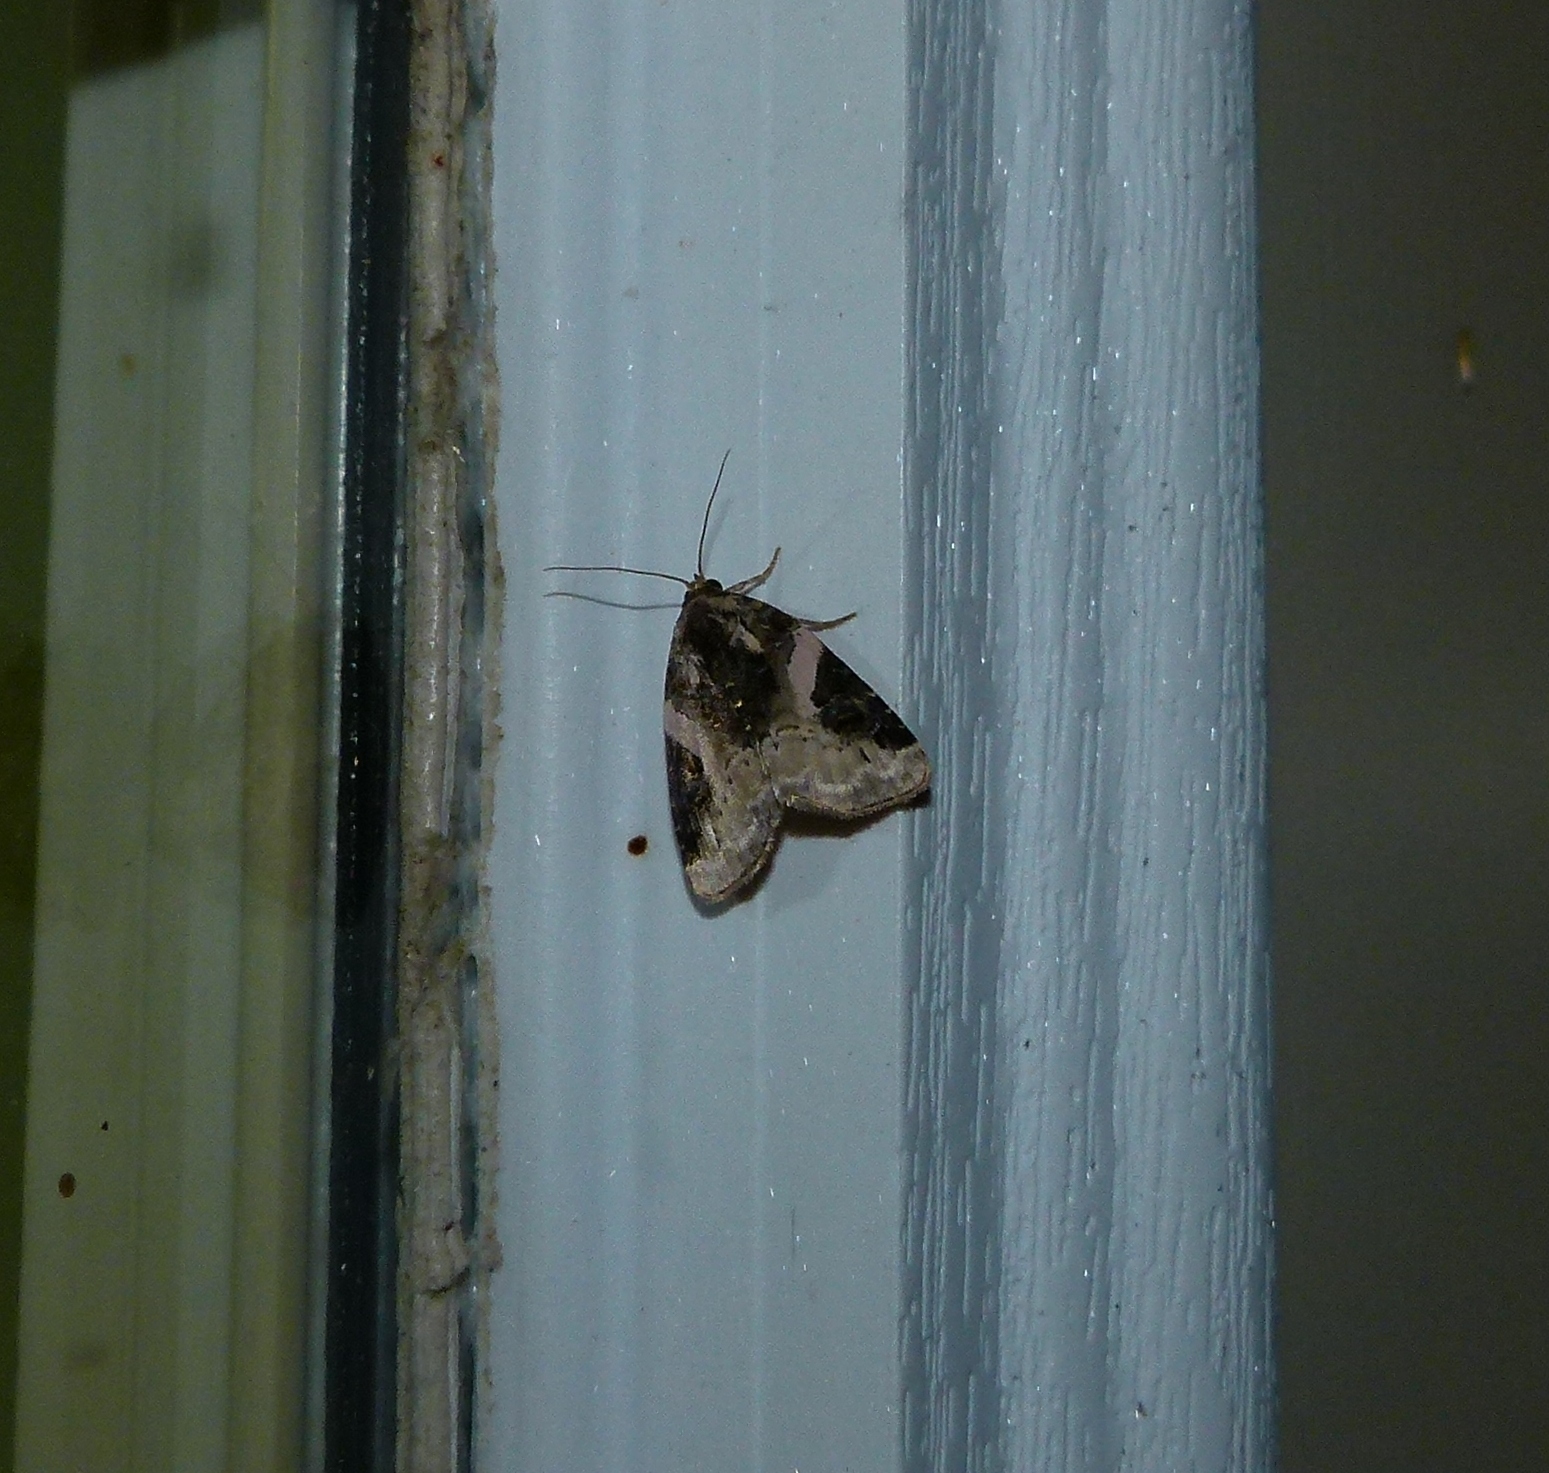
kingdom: Animalia
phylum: Arthropoda
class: Insecta
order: Lepidoptera
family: Noctuidae
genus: Pseudeustrotia
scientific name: Pseudeustrotia carneola
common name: Pink-barred lithacodia moth
